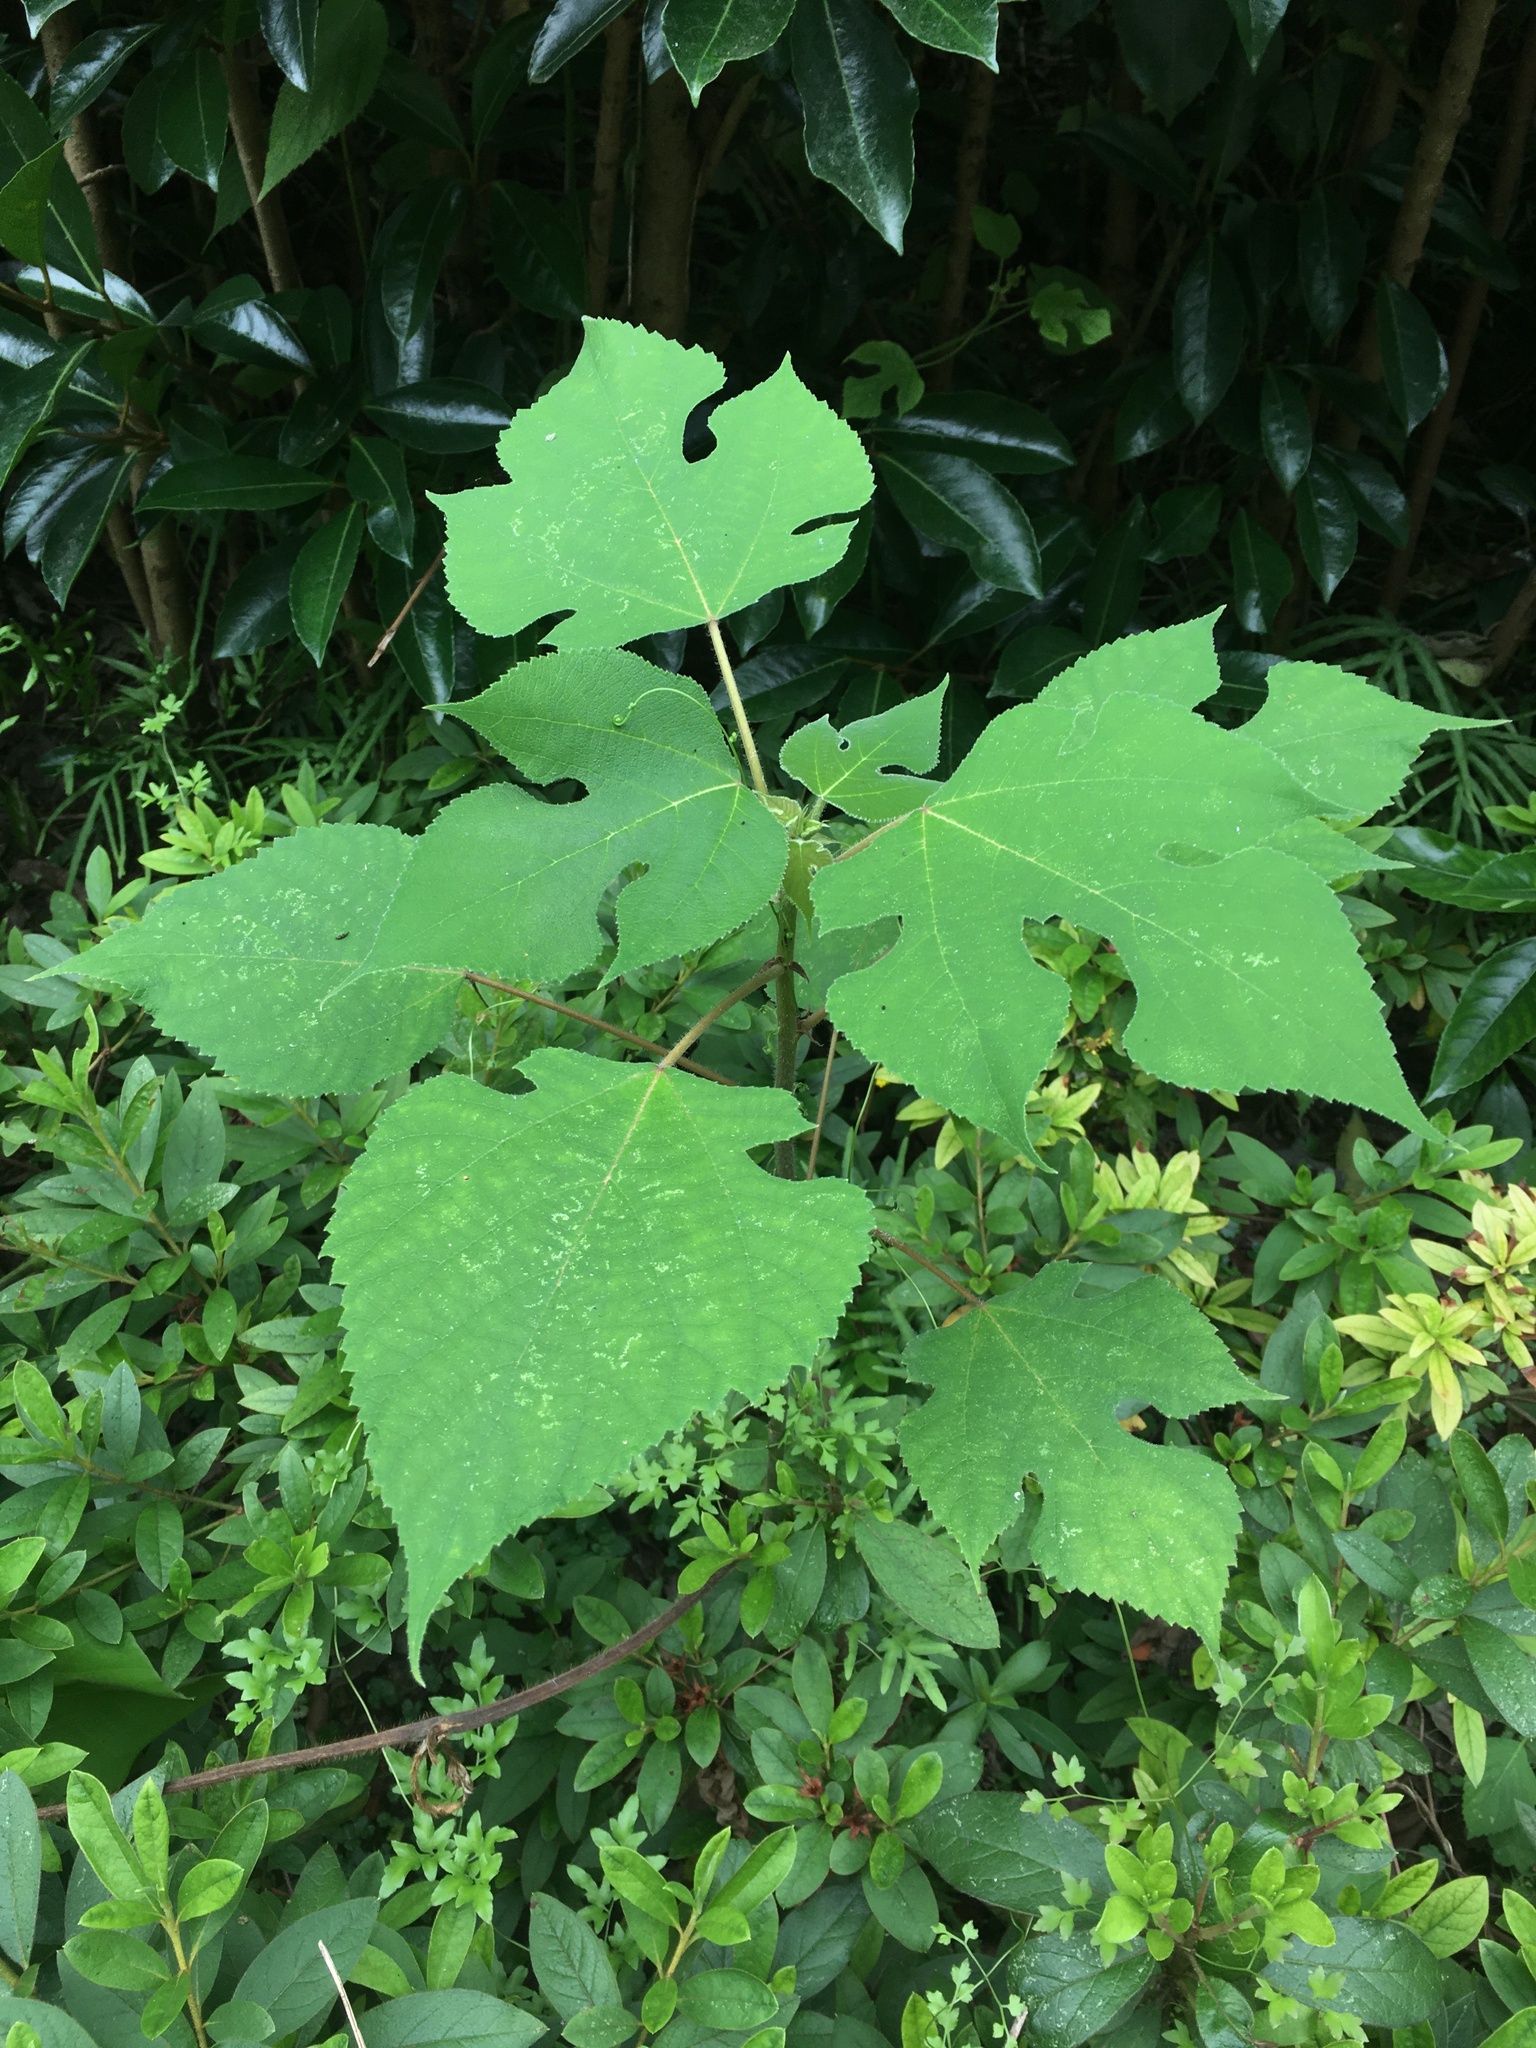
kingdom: Plantae
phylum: Tracheophyta
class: Magnoliopsida
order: Rosales
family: Moraceae
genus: Broussonetia
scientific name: Broussonetia papyrifera
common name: Paper mulberry
